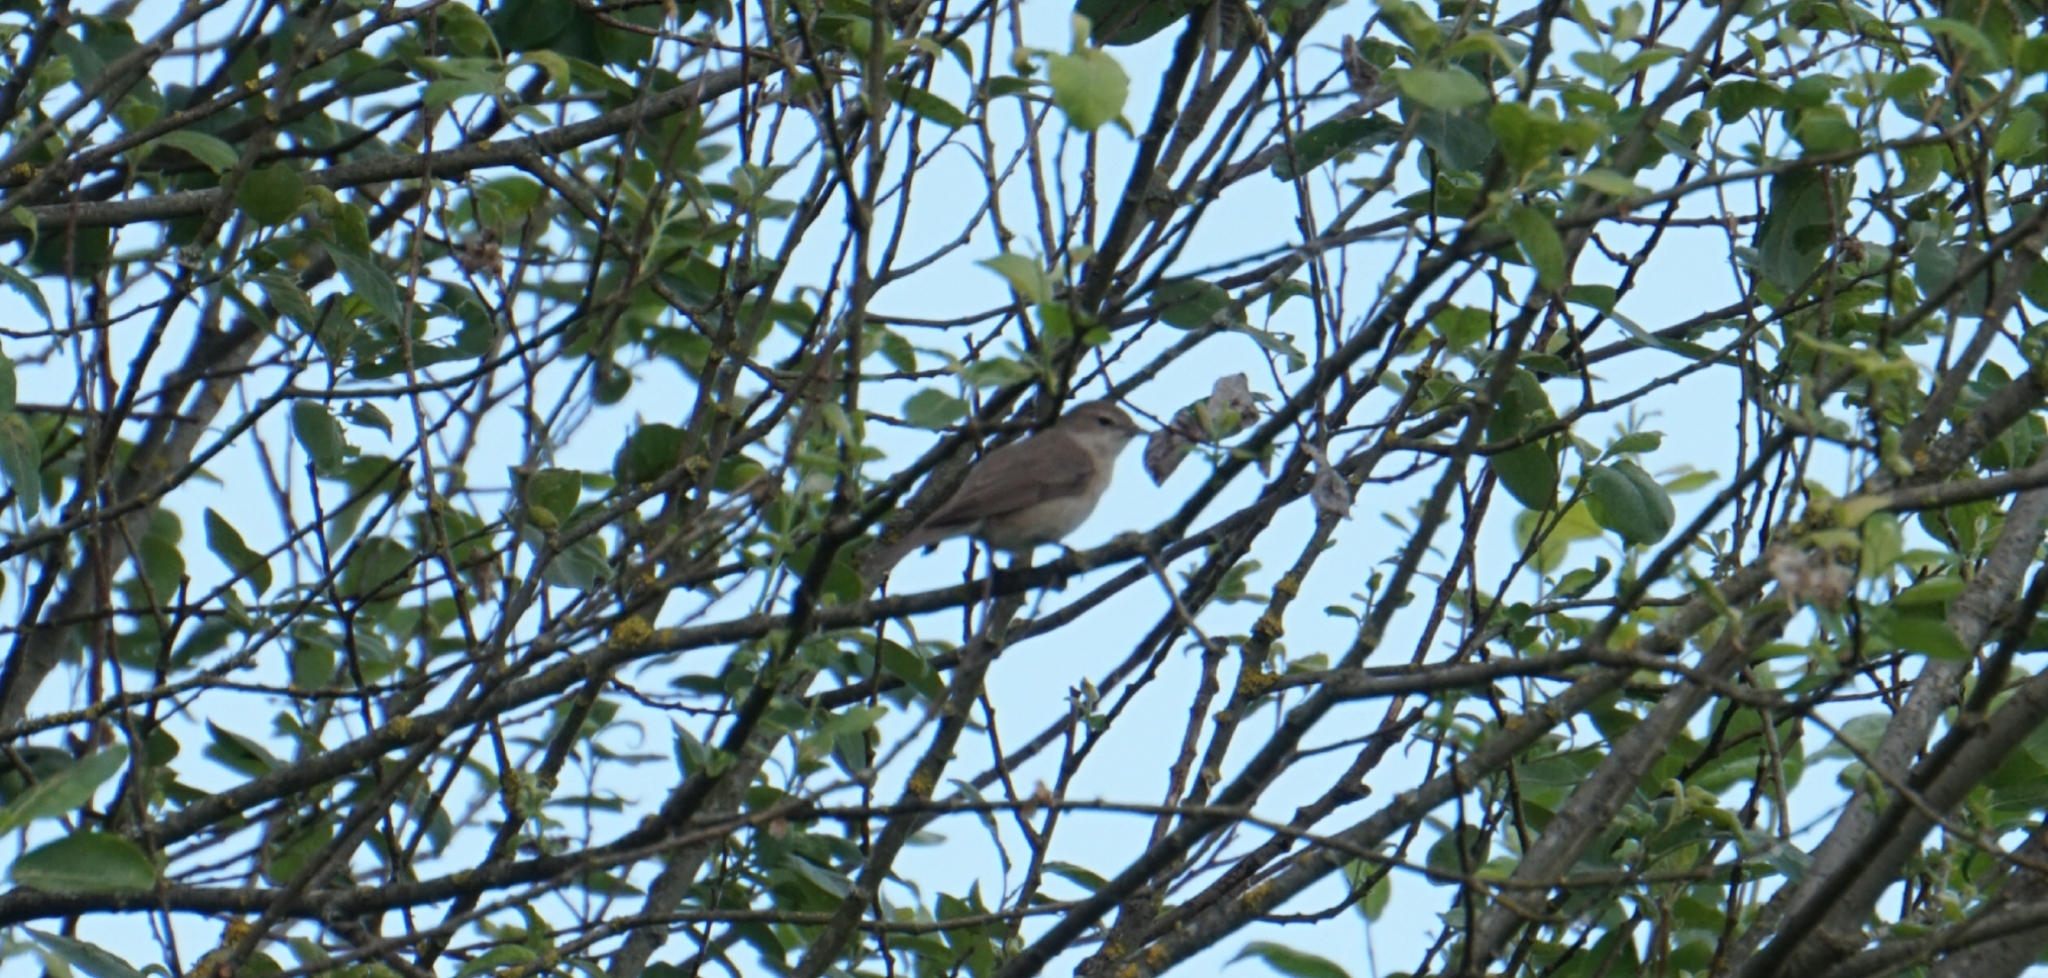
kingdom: Animalia
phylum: Chordata
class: Aves
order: Passeriformes
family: Sylviidae
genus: Sylvia
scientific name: Sylvia borin
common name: Garden warbler
